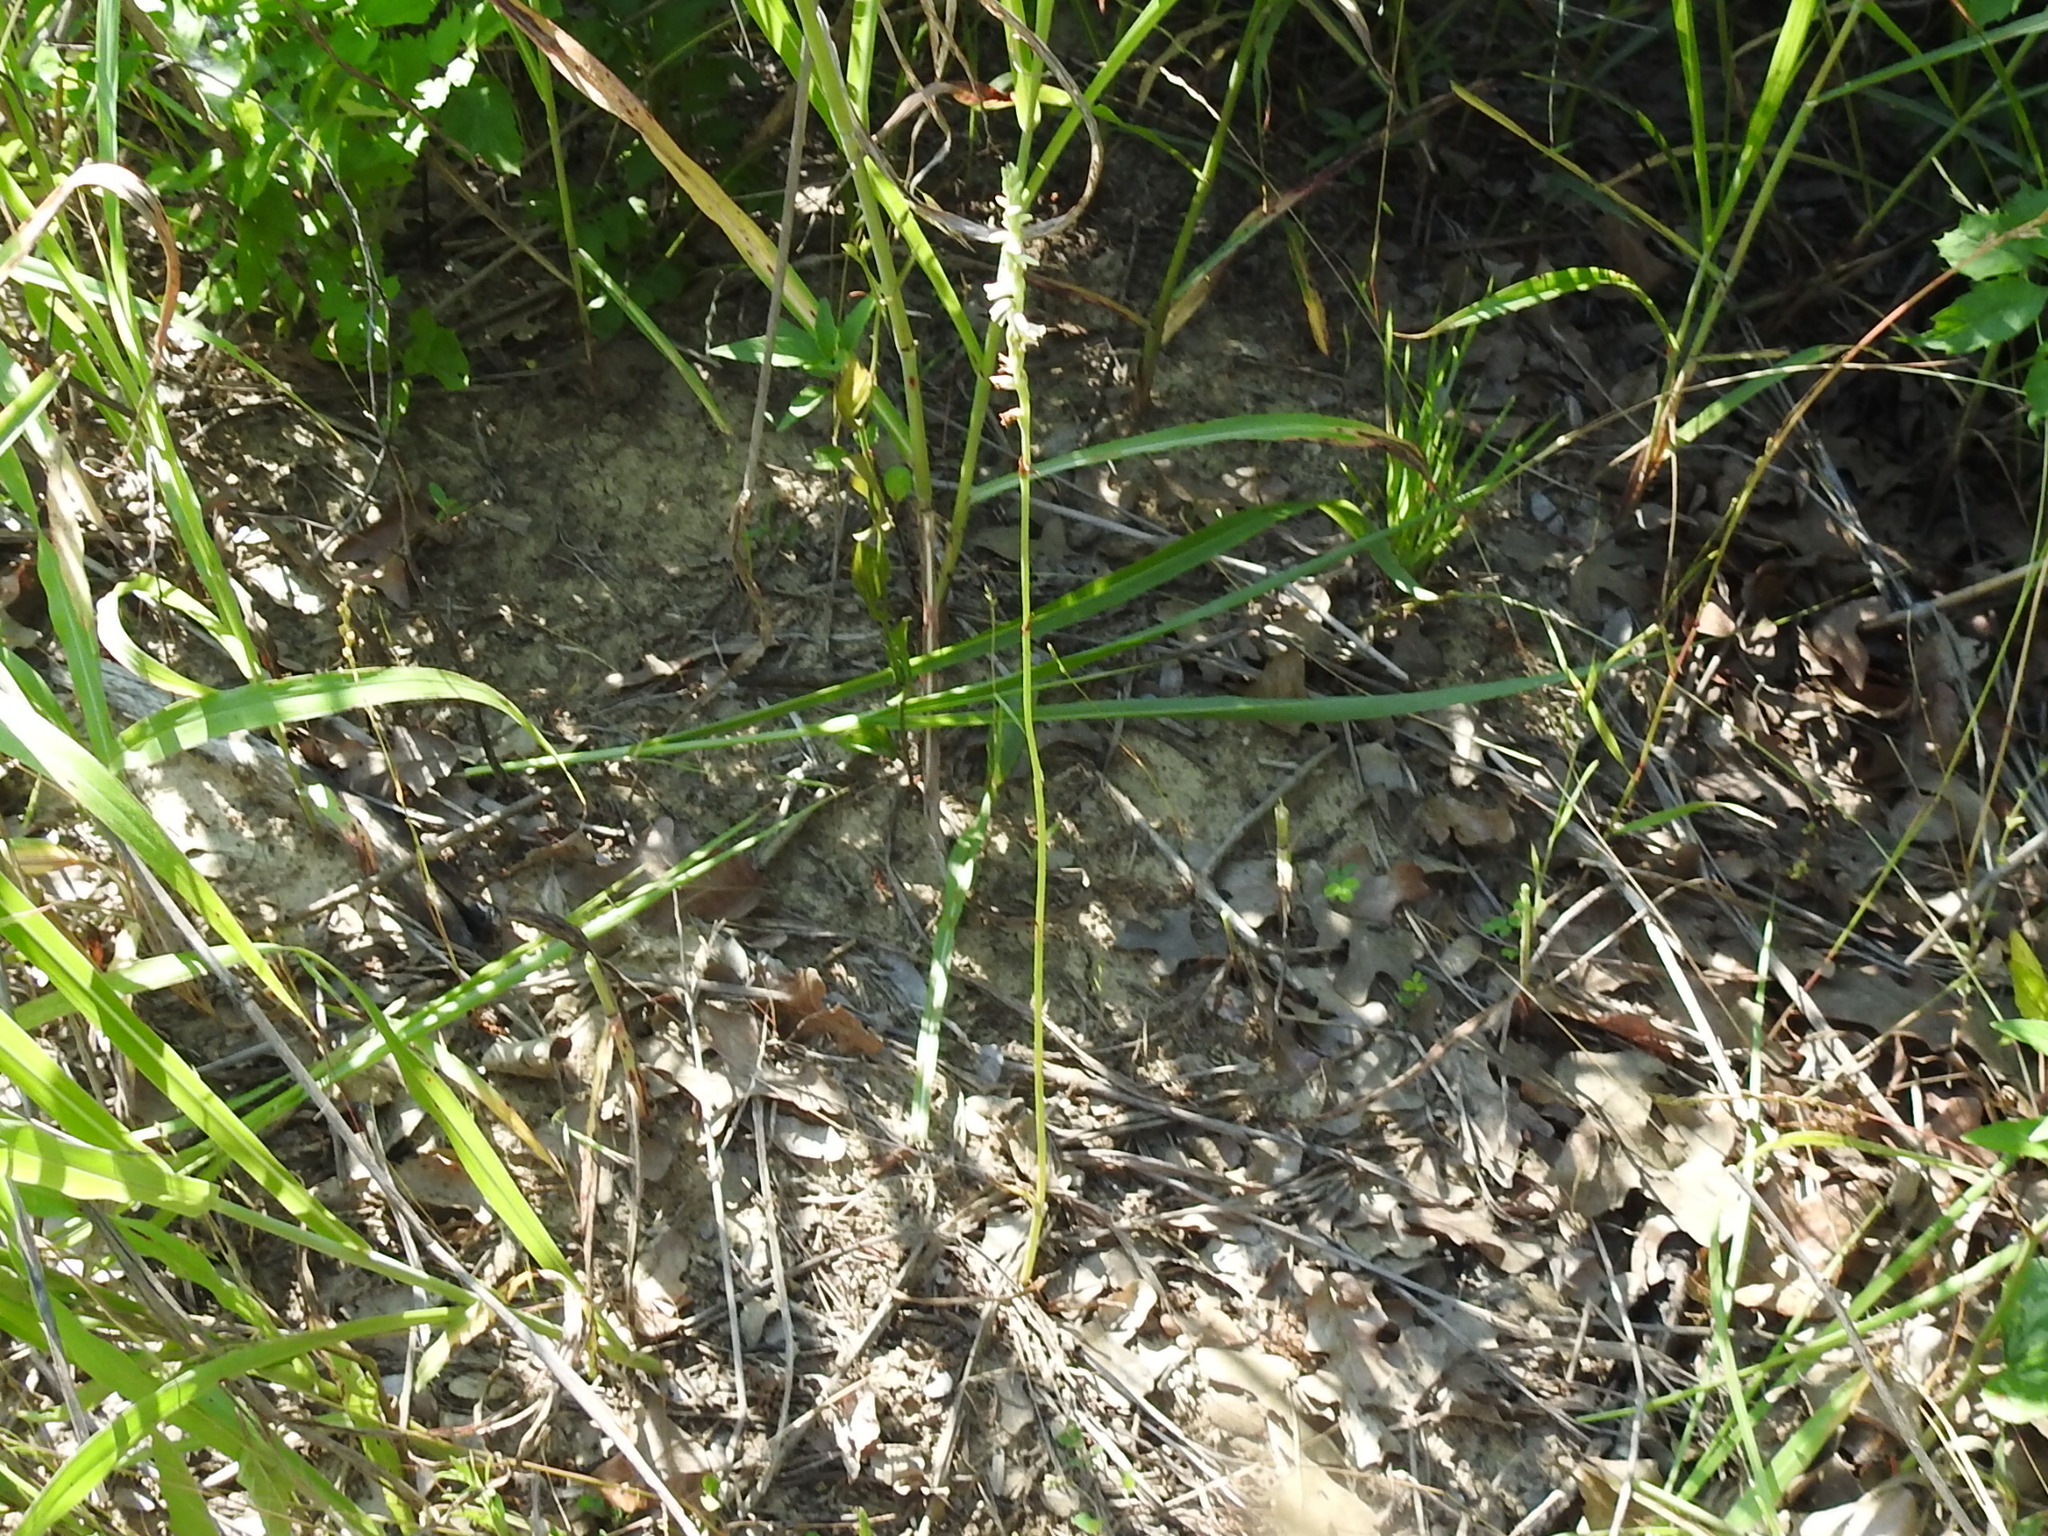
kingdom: Plantae
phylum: Tracheophyta
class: Liliopsida
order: Asparagales
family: Orchidaceae
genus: Spiranthes
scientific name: Spiranthes vernalis
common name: Spring ladies'-tresses
